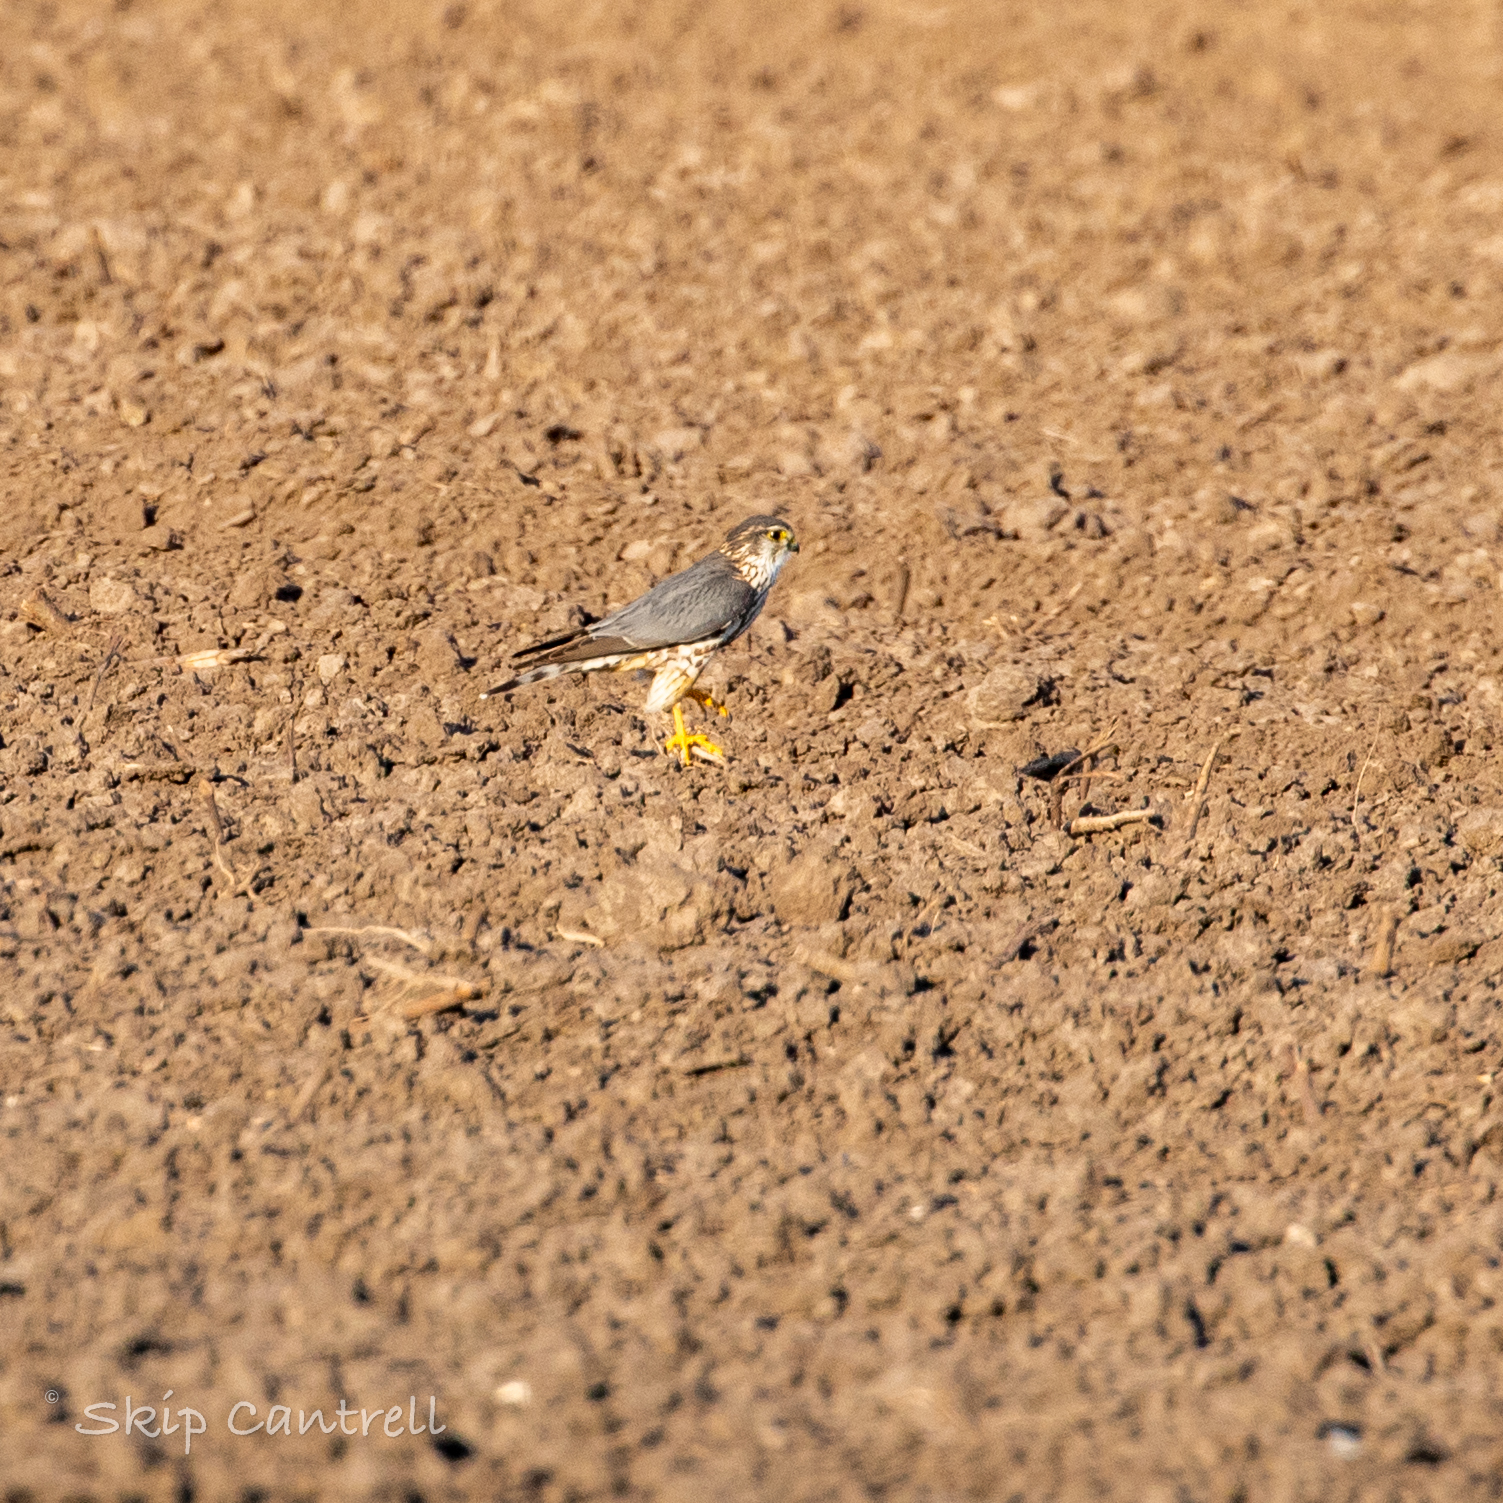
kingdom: Animalia
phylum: Chordata
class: Aves
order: Falconiformes
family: Falconidae
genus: Falco
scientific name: Falco columbarius
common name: Merlin
